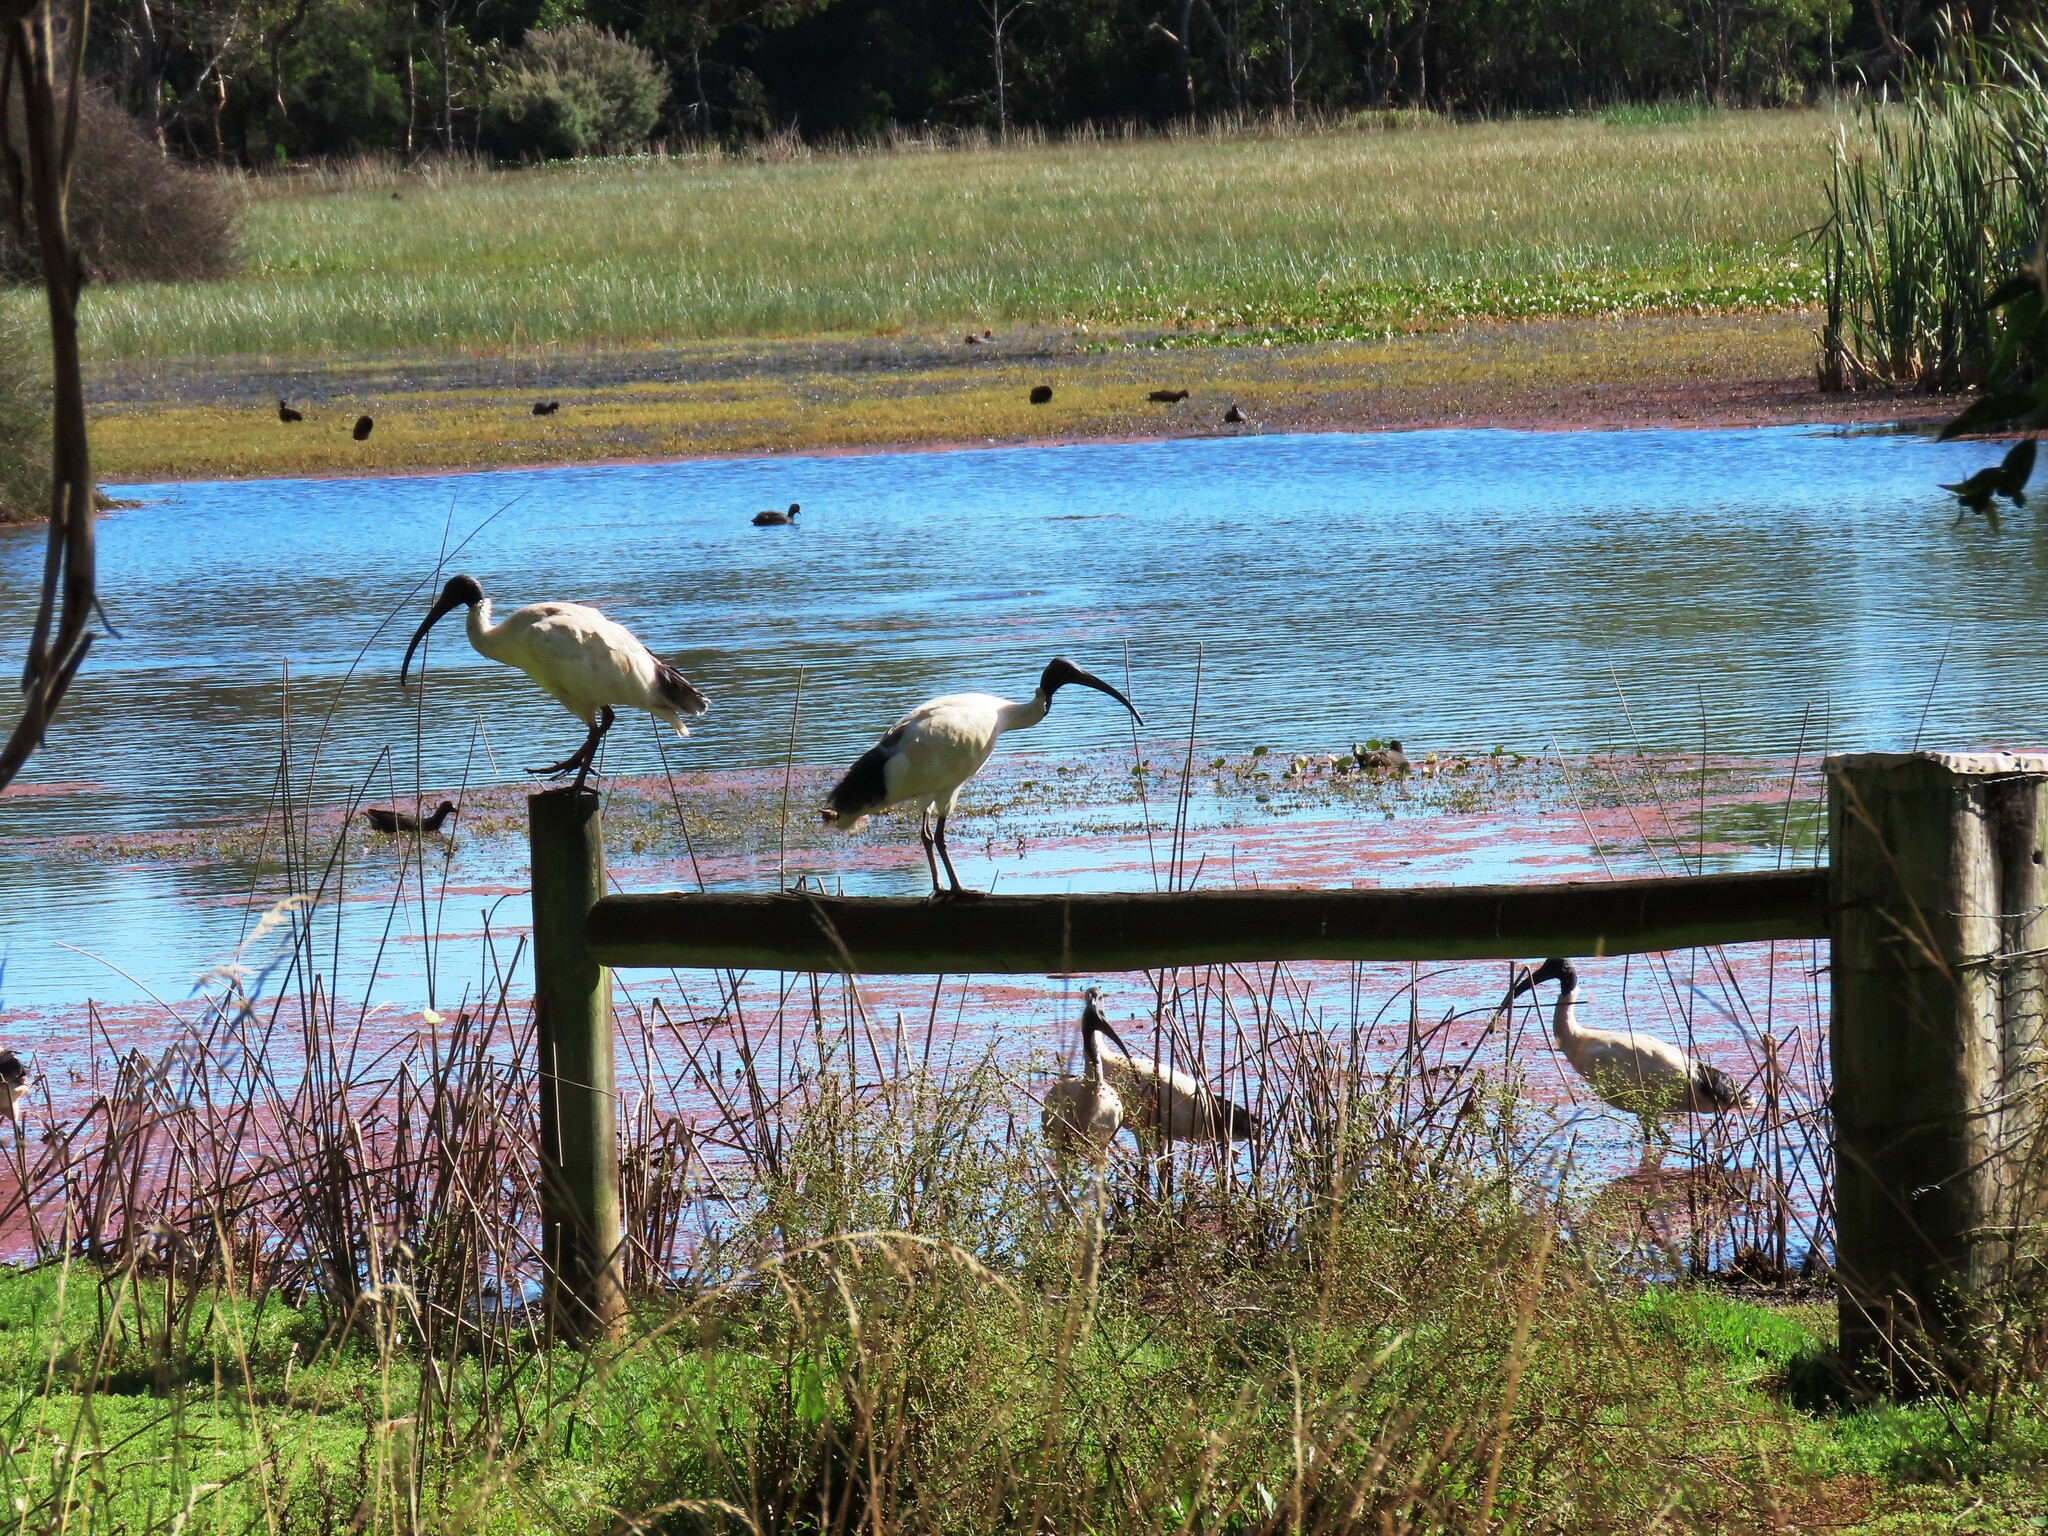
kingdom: Animalia
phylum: Chordata
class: Aves
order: Pelecaniformes
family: Threskiornithidae
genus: Threskiornis
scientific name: Threskiornis molucca
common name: Australian white ibis
